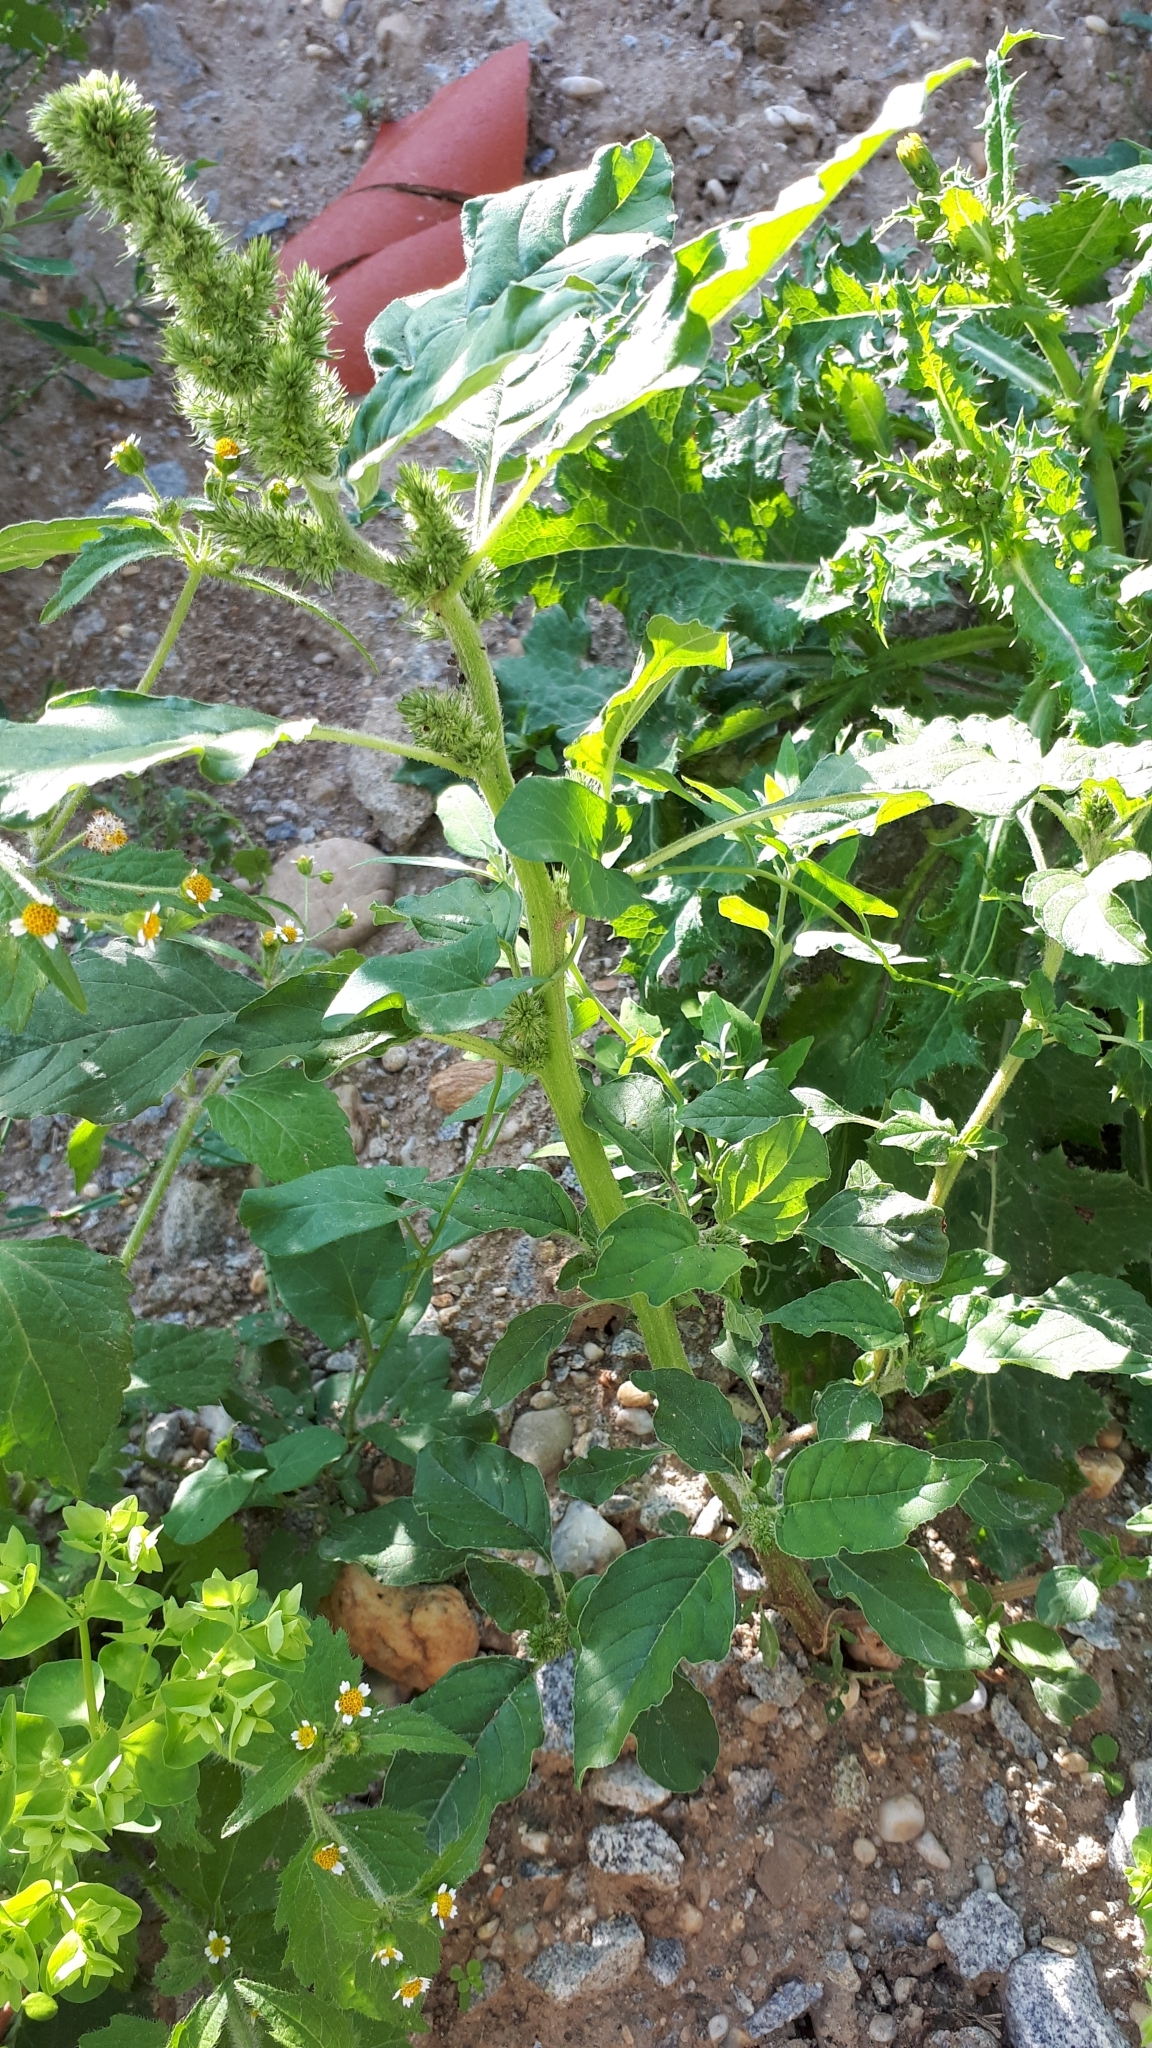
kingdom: Plantae
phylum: Tracheophyta
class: Magnoliopsida
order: Caryophyllales
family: Amaranthaceae
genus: Amaranthus
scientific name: Amaranthus retroflexus
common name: Redroot amaranth
